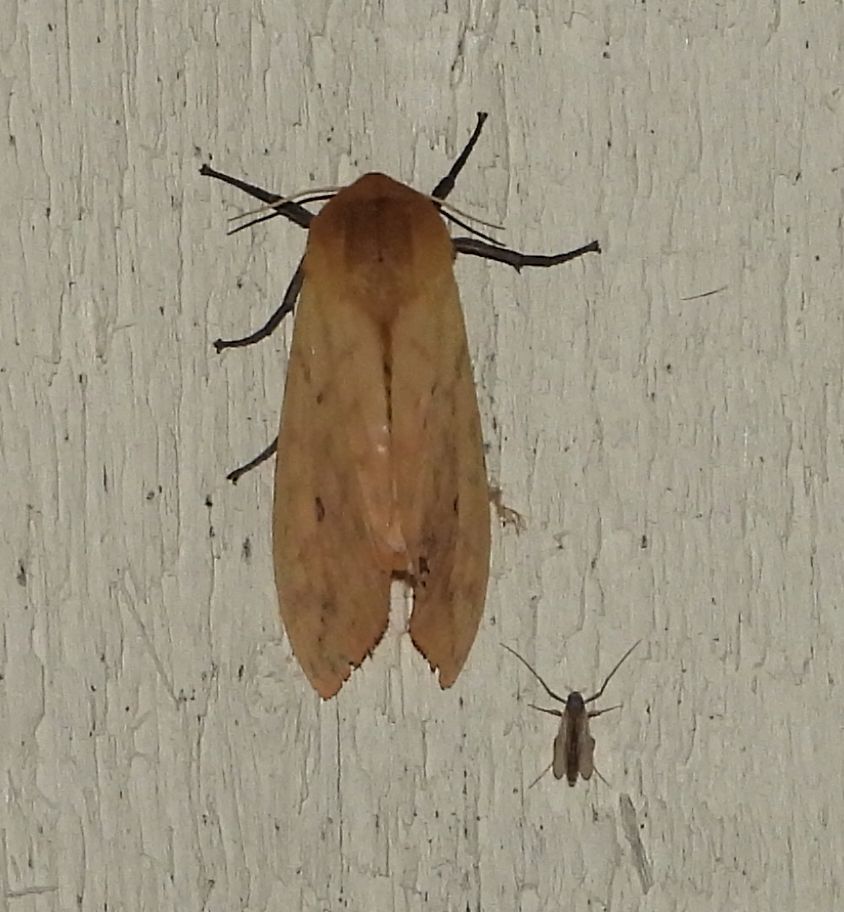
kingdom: Animalia
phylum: Arthropoda
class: Insecta
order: Lepidoptera
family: Erebidae
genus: Pyrrharctia
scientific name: Pyrrharctia isabella
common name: Isabella tiger moth
